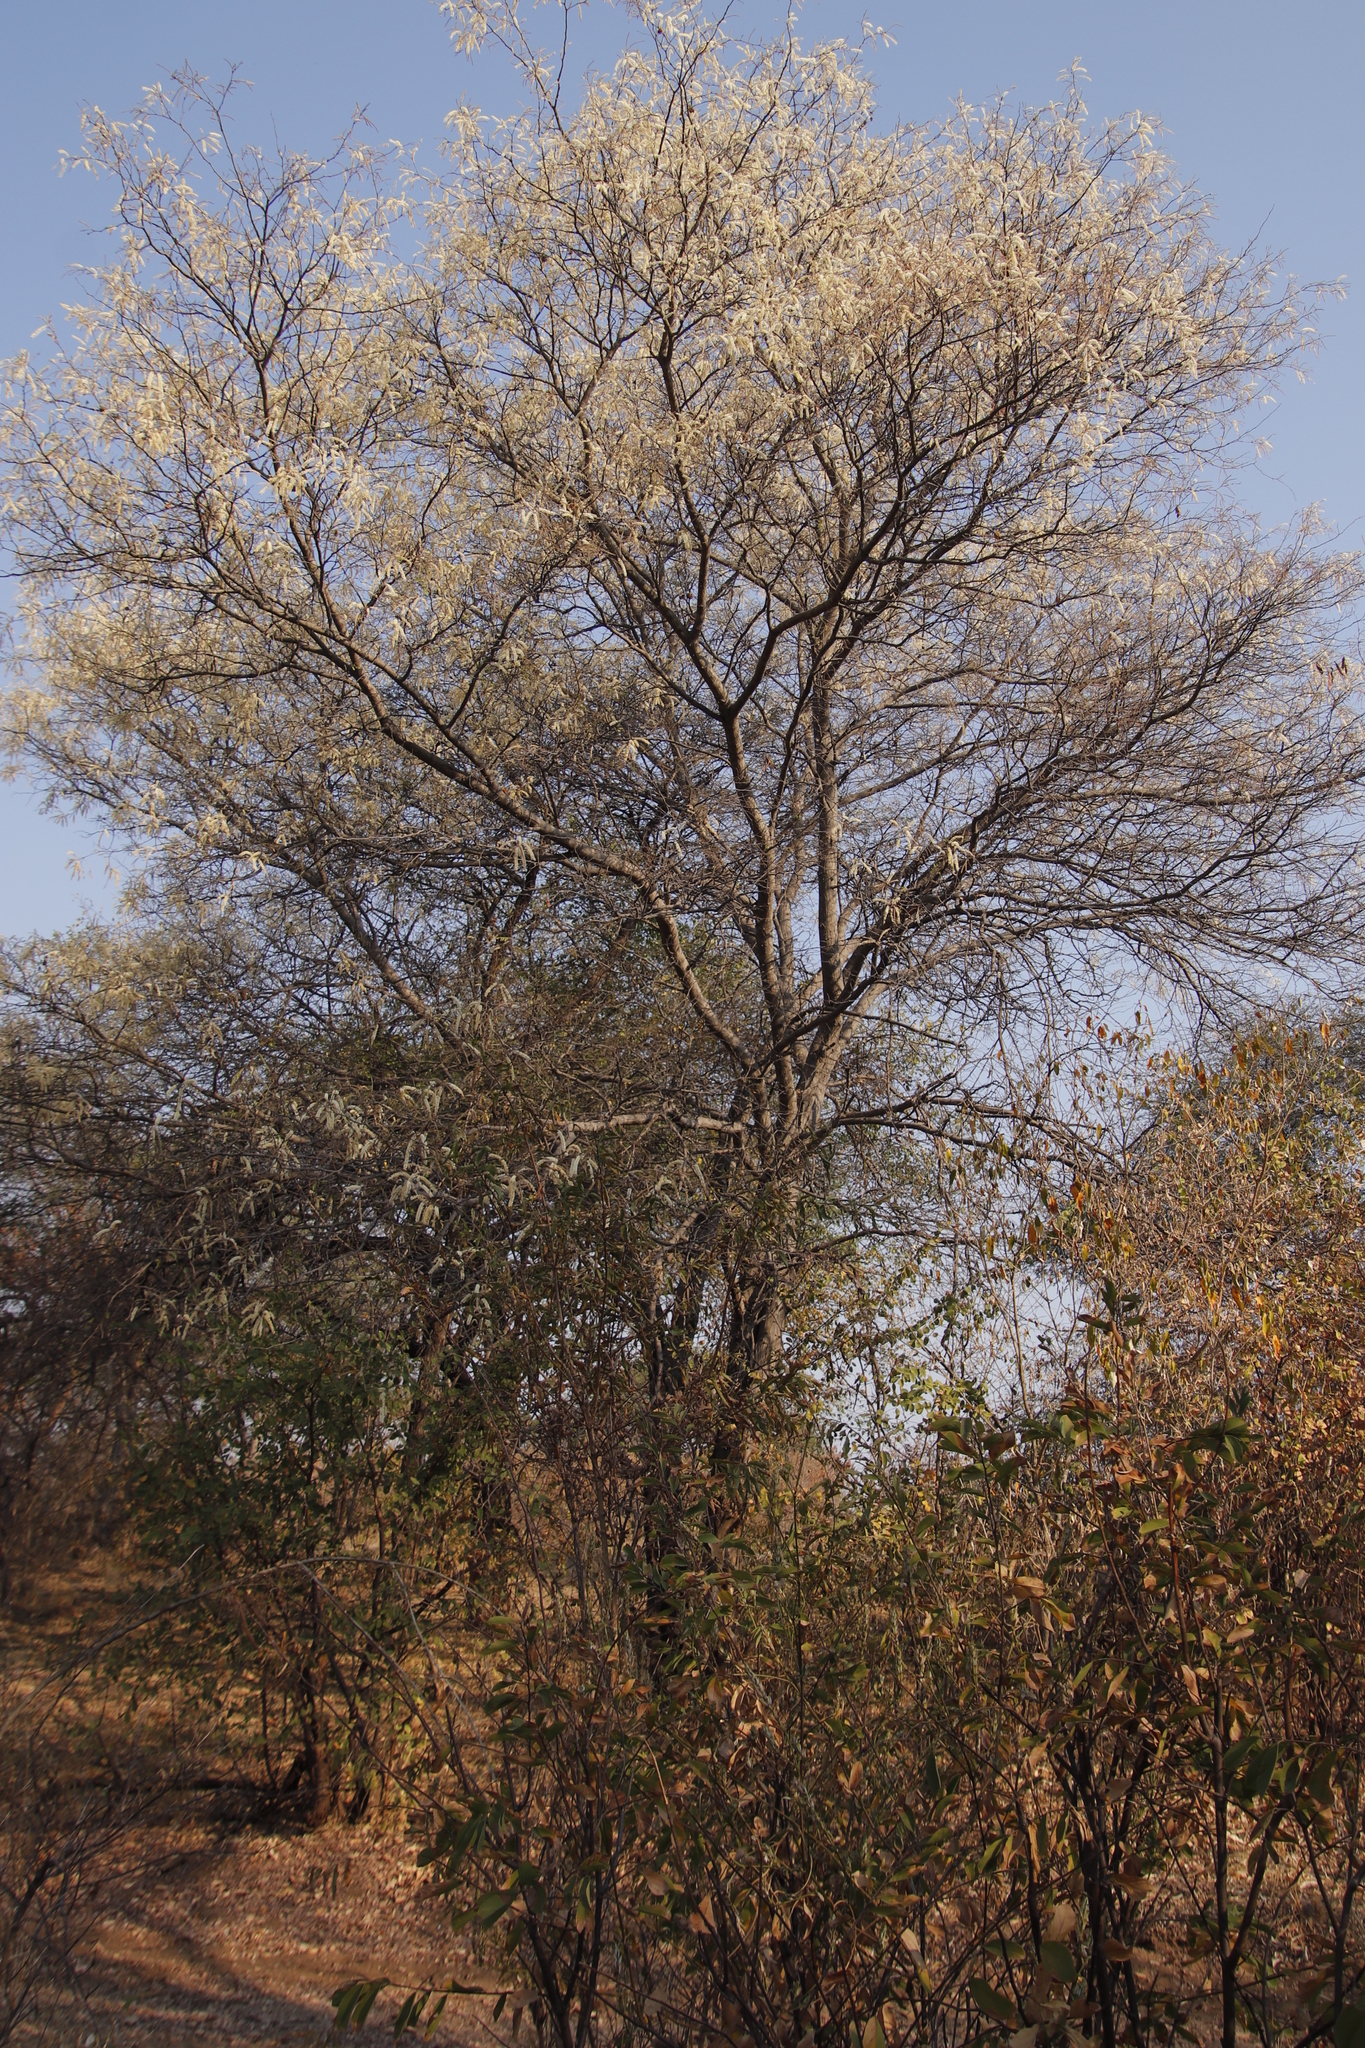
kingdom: Plantae
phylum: Tracheophyta
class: Magnoliopsida
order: Fabales
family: Fabaceae
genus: Senegalia
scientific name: Senegalia nigrescens
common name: Knobthorn
